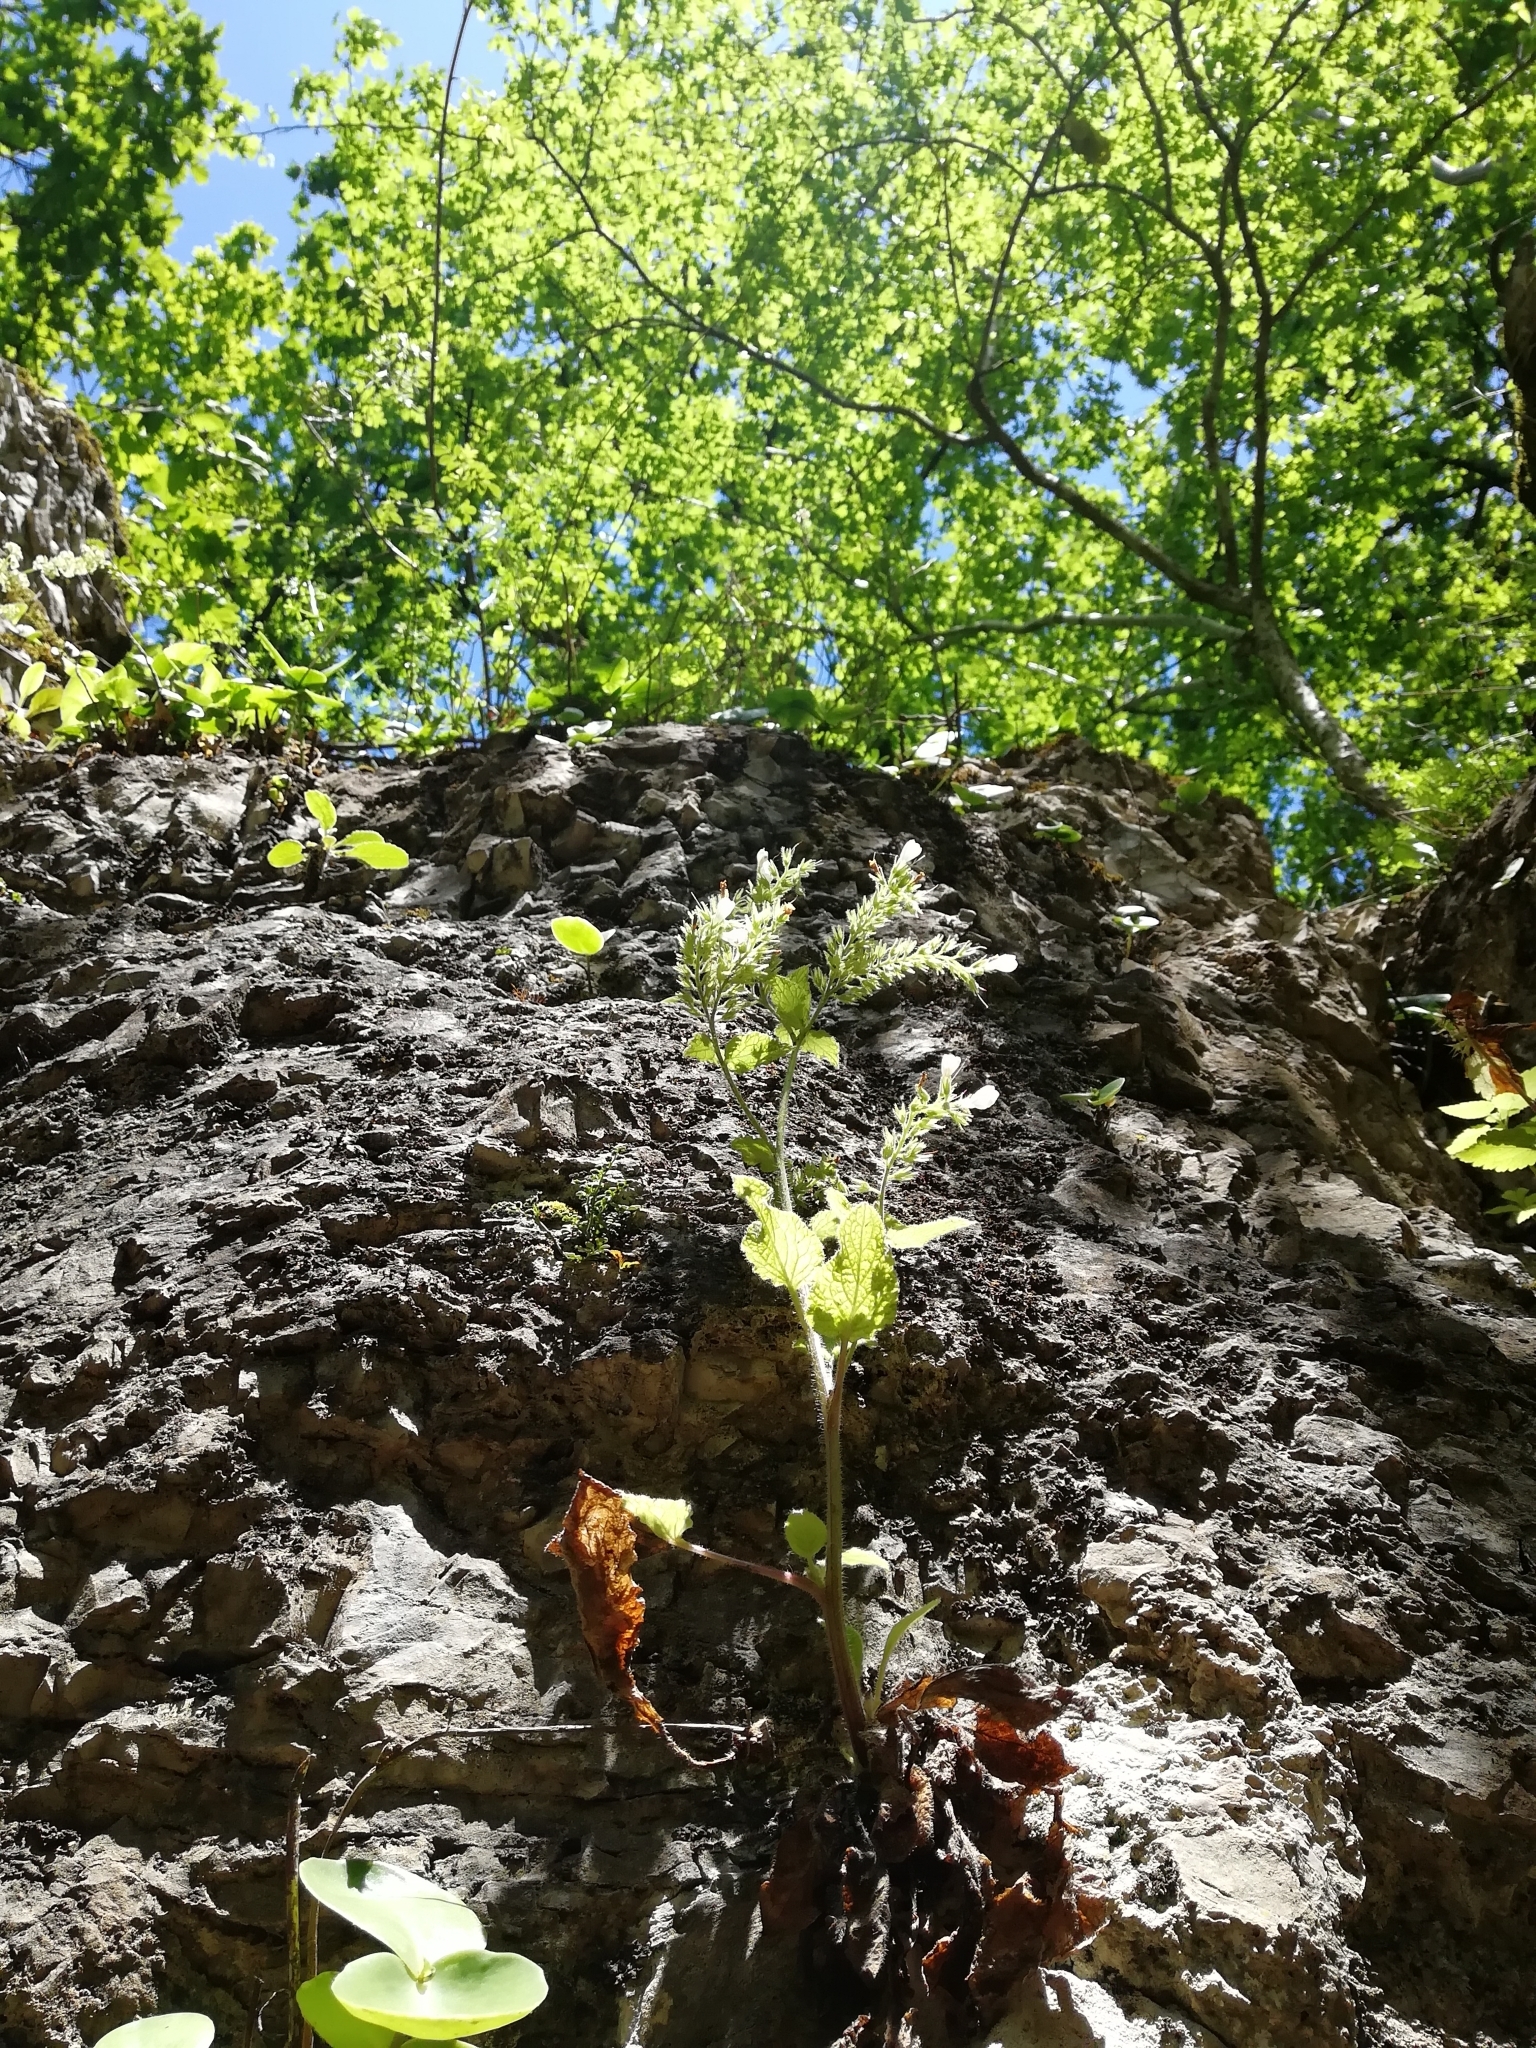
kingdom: Plantae
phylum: Tracheophyta
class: Magnoliopsida
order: Boraginales
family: Boraginaceae
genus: Symphytum
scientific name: Symphytum tauricum
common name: Crimean comfrey
